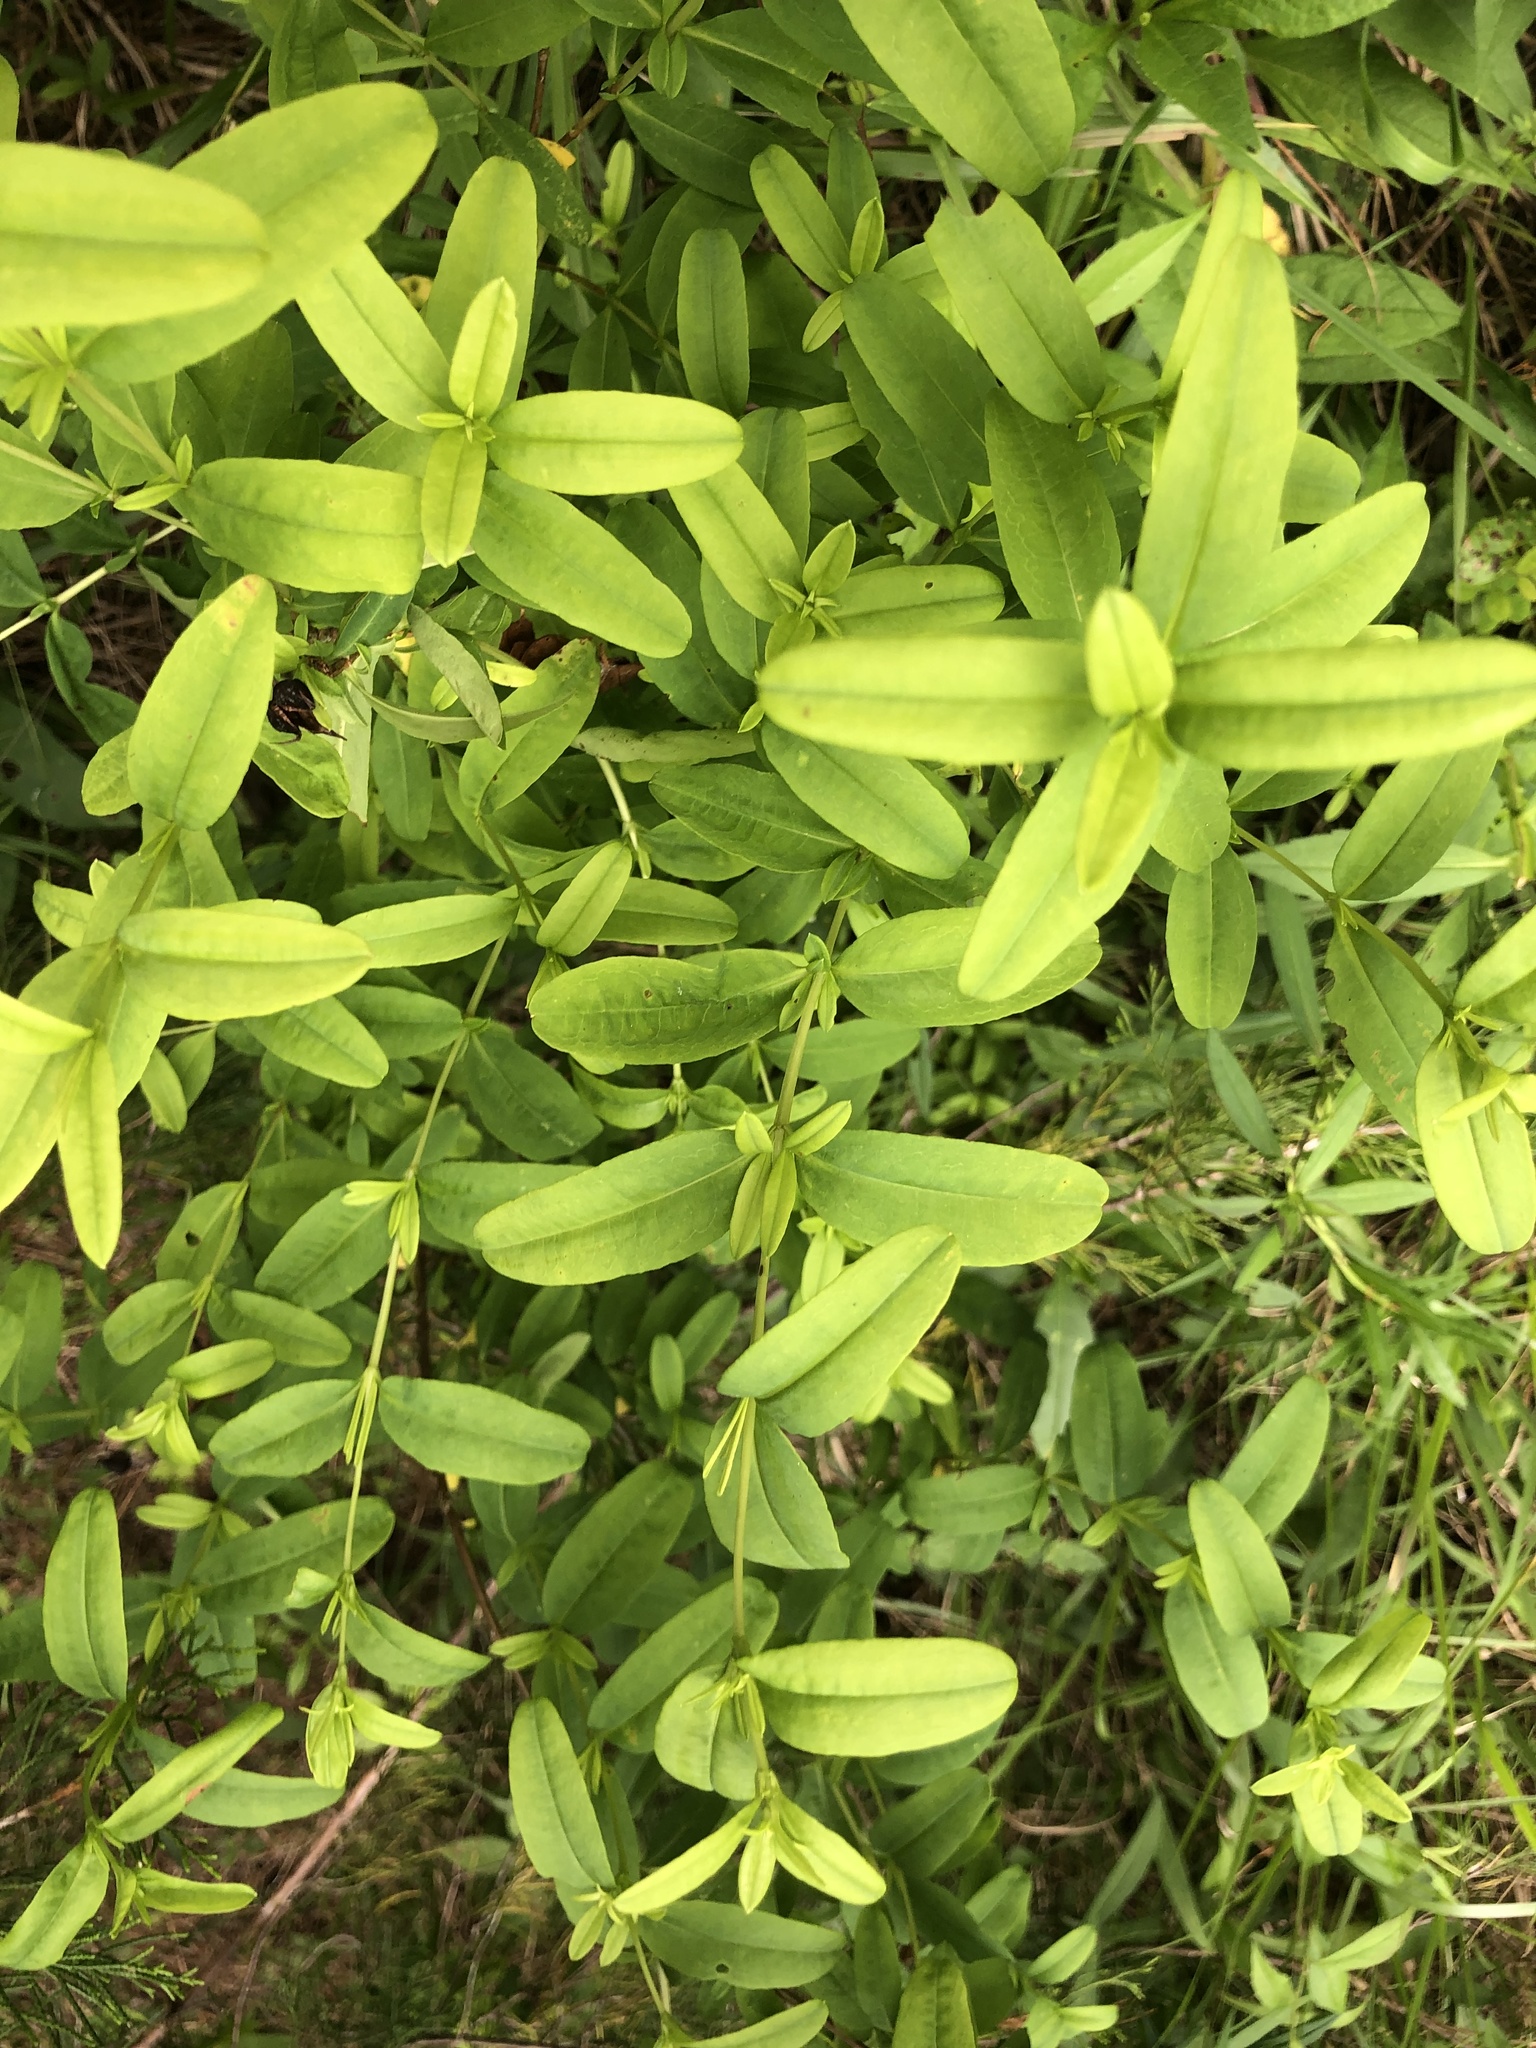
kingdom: Plantae
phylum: Tracheophyta
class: Magnoliopsida
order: Malpighiales
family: Hypericaceae
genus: Hypericum
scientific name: Hypericum frondosum
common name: Golden st. john's-wort
